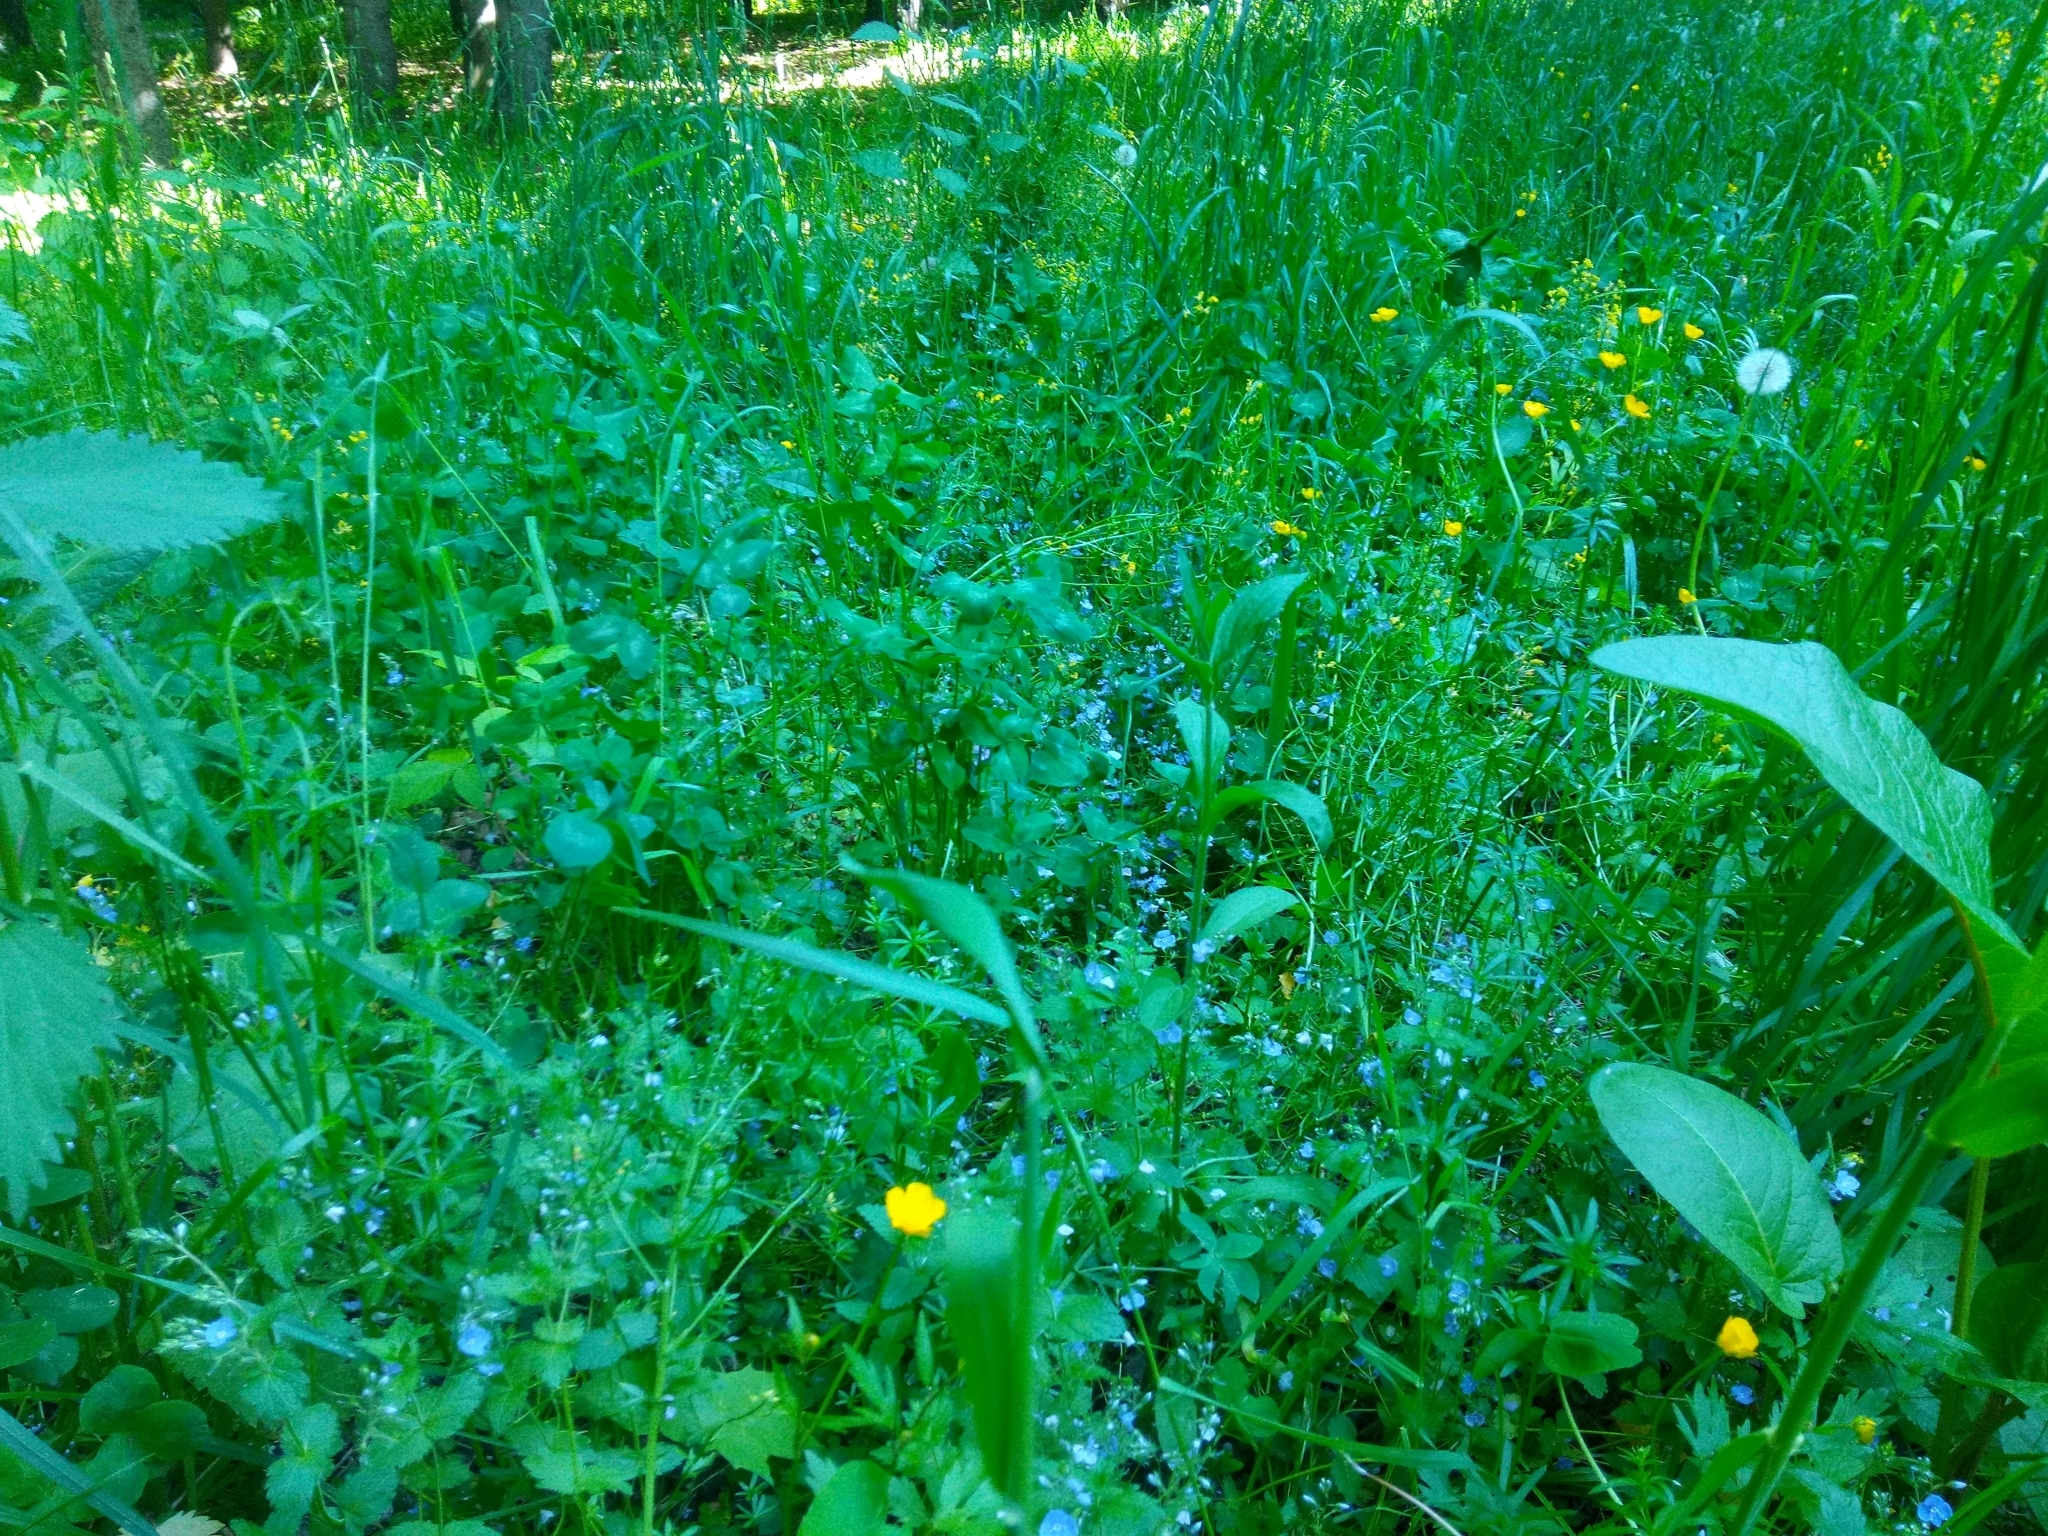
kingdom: Plantae
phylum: Tracheophyta
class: Magnoliopsida
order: Lamiales
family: Plantaginaceae
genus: Veronica
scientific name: Veronica chamaedrys
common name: Germander speedwell
